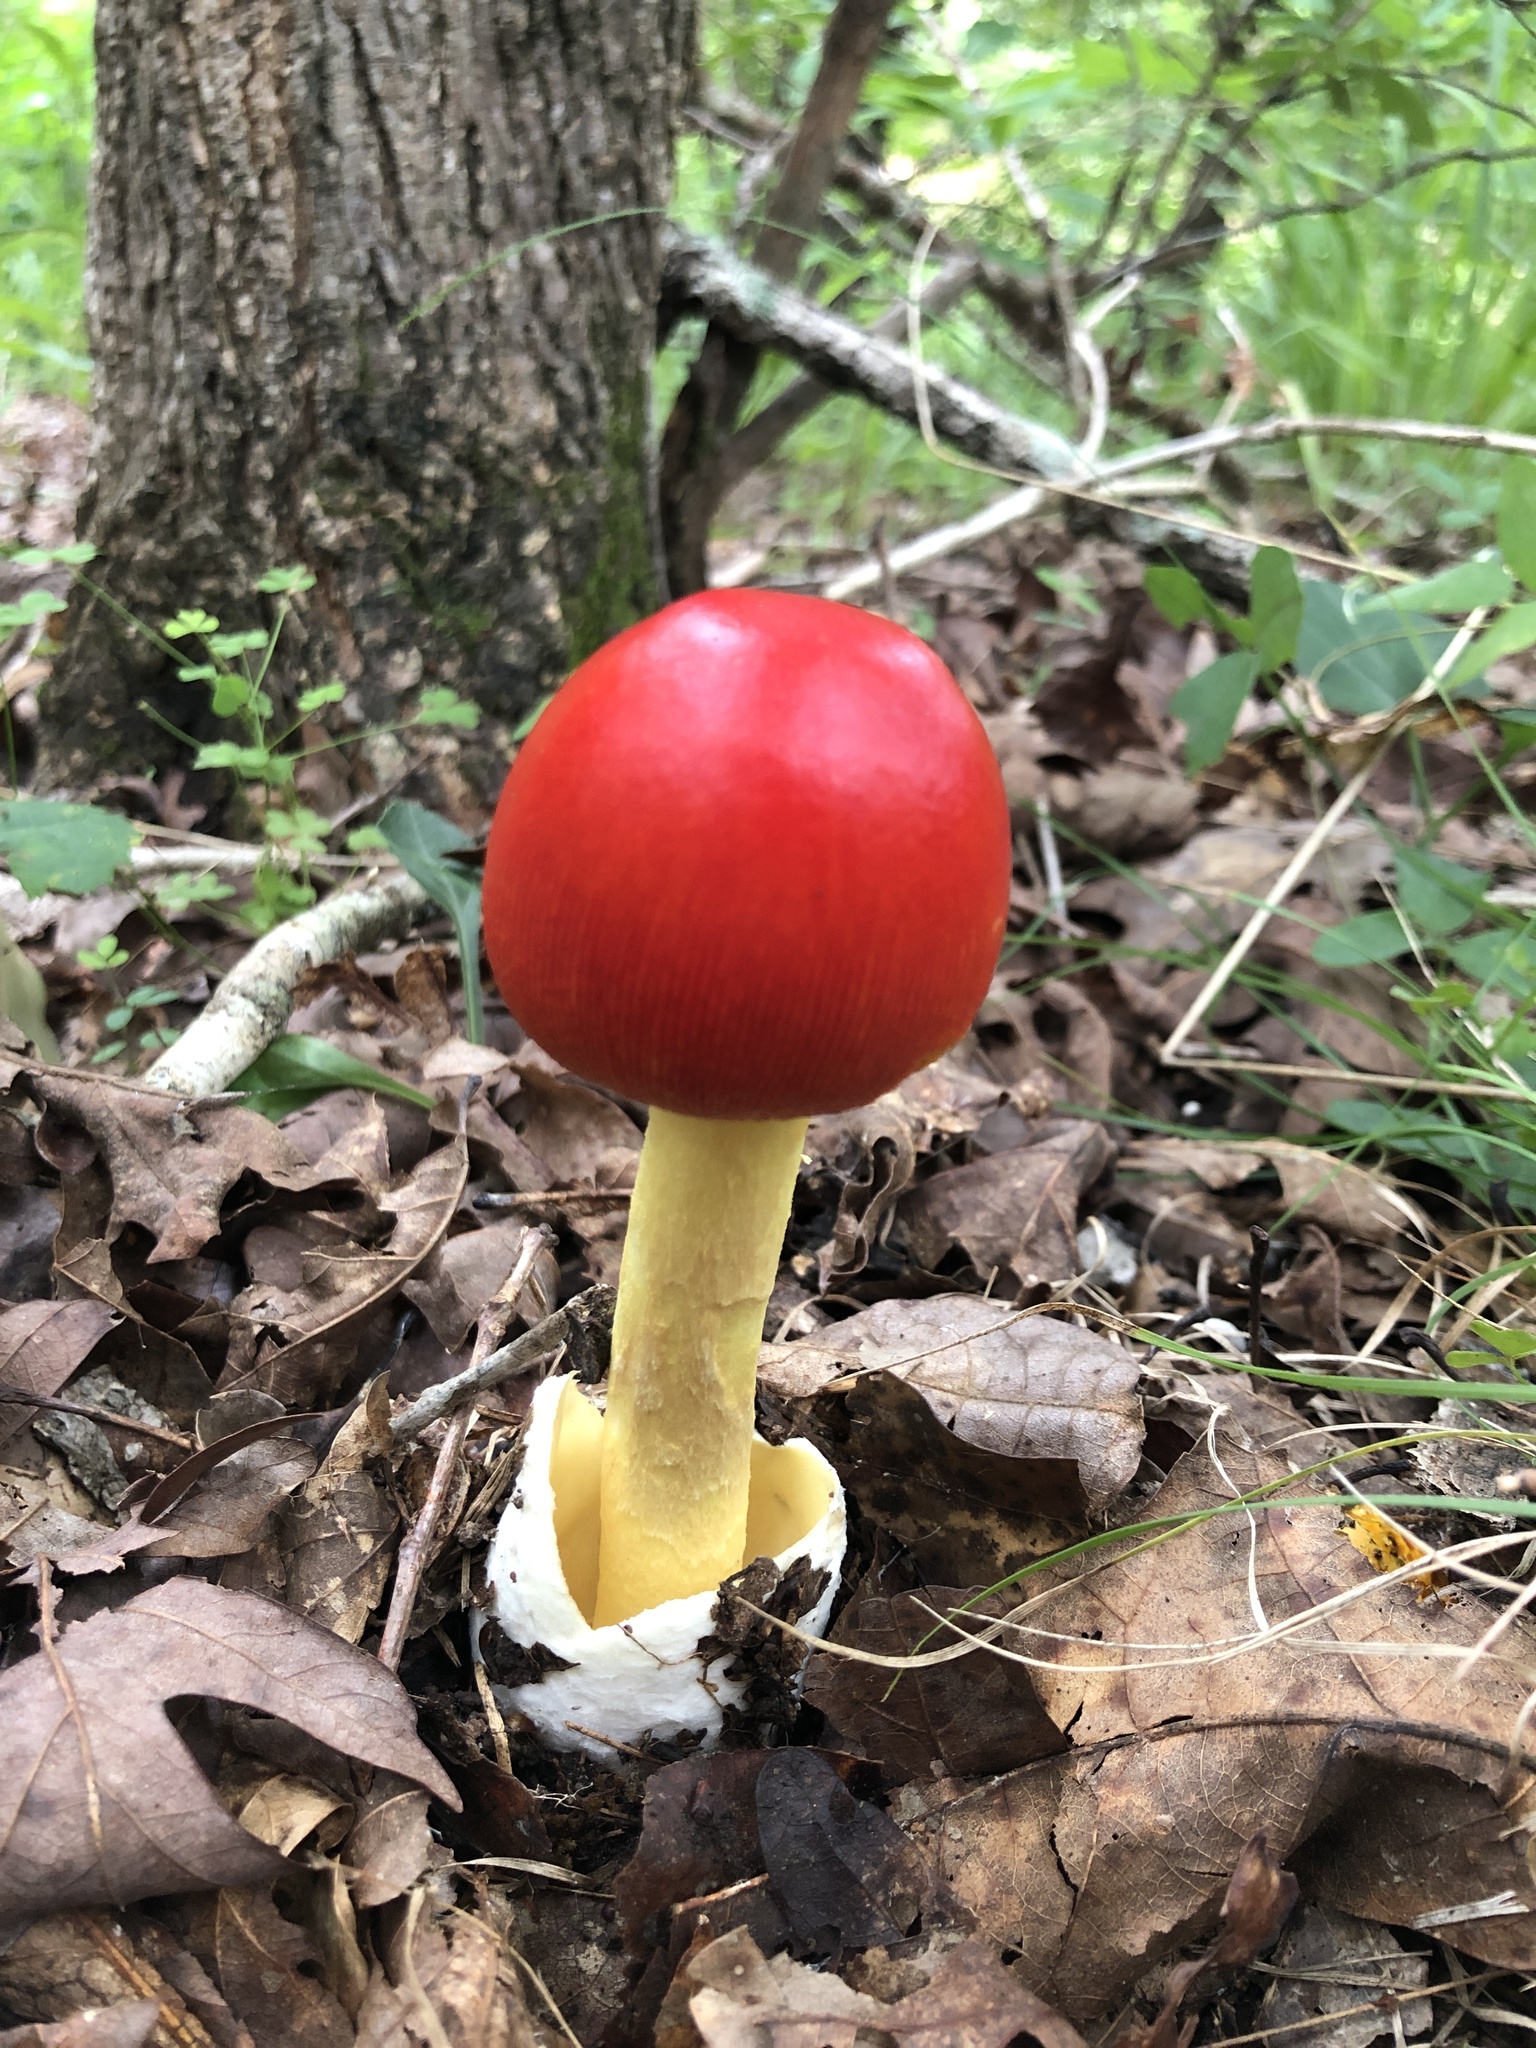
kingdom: Fungi
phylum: Basidiomycota
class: Agaricomycetes
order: Agaricales
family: Amanitaceae
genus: Amanita
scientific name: Amanita jacksonii
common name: Jackson's slender caesar
